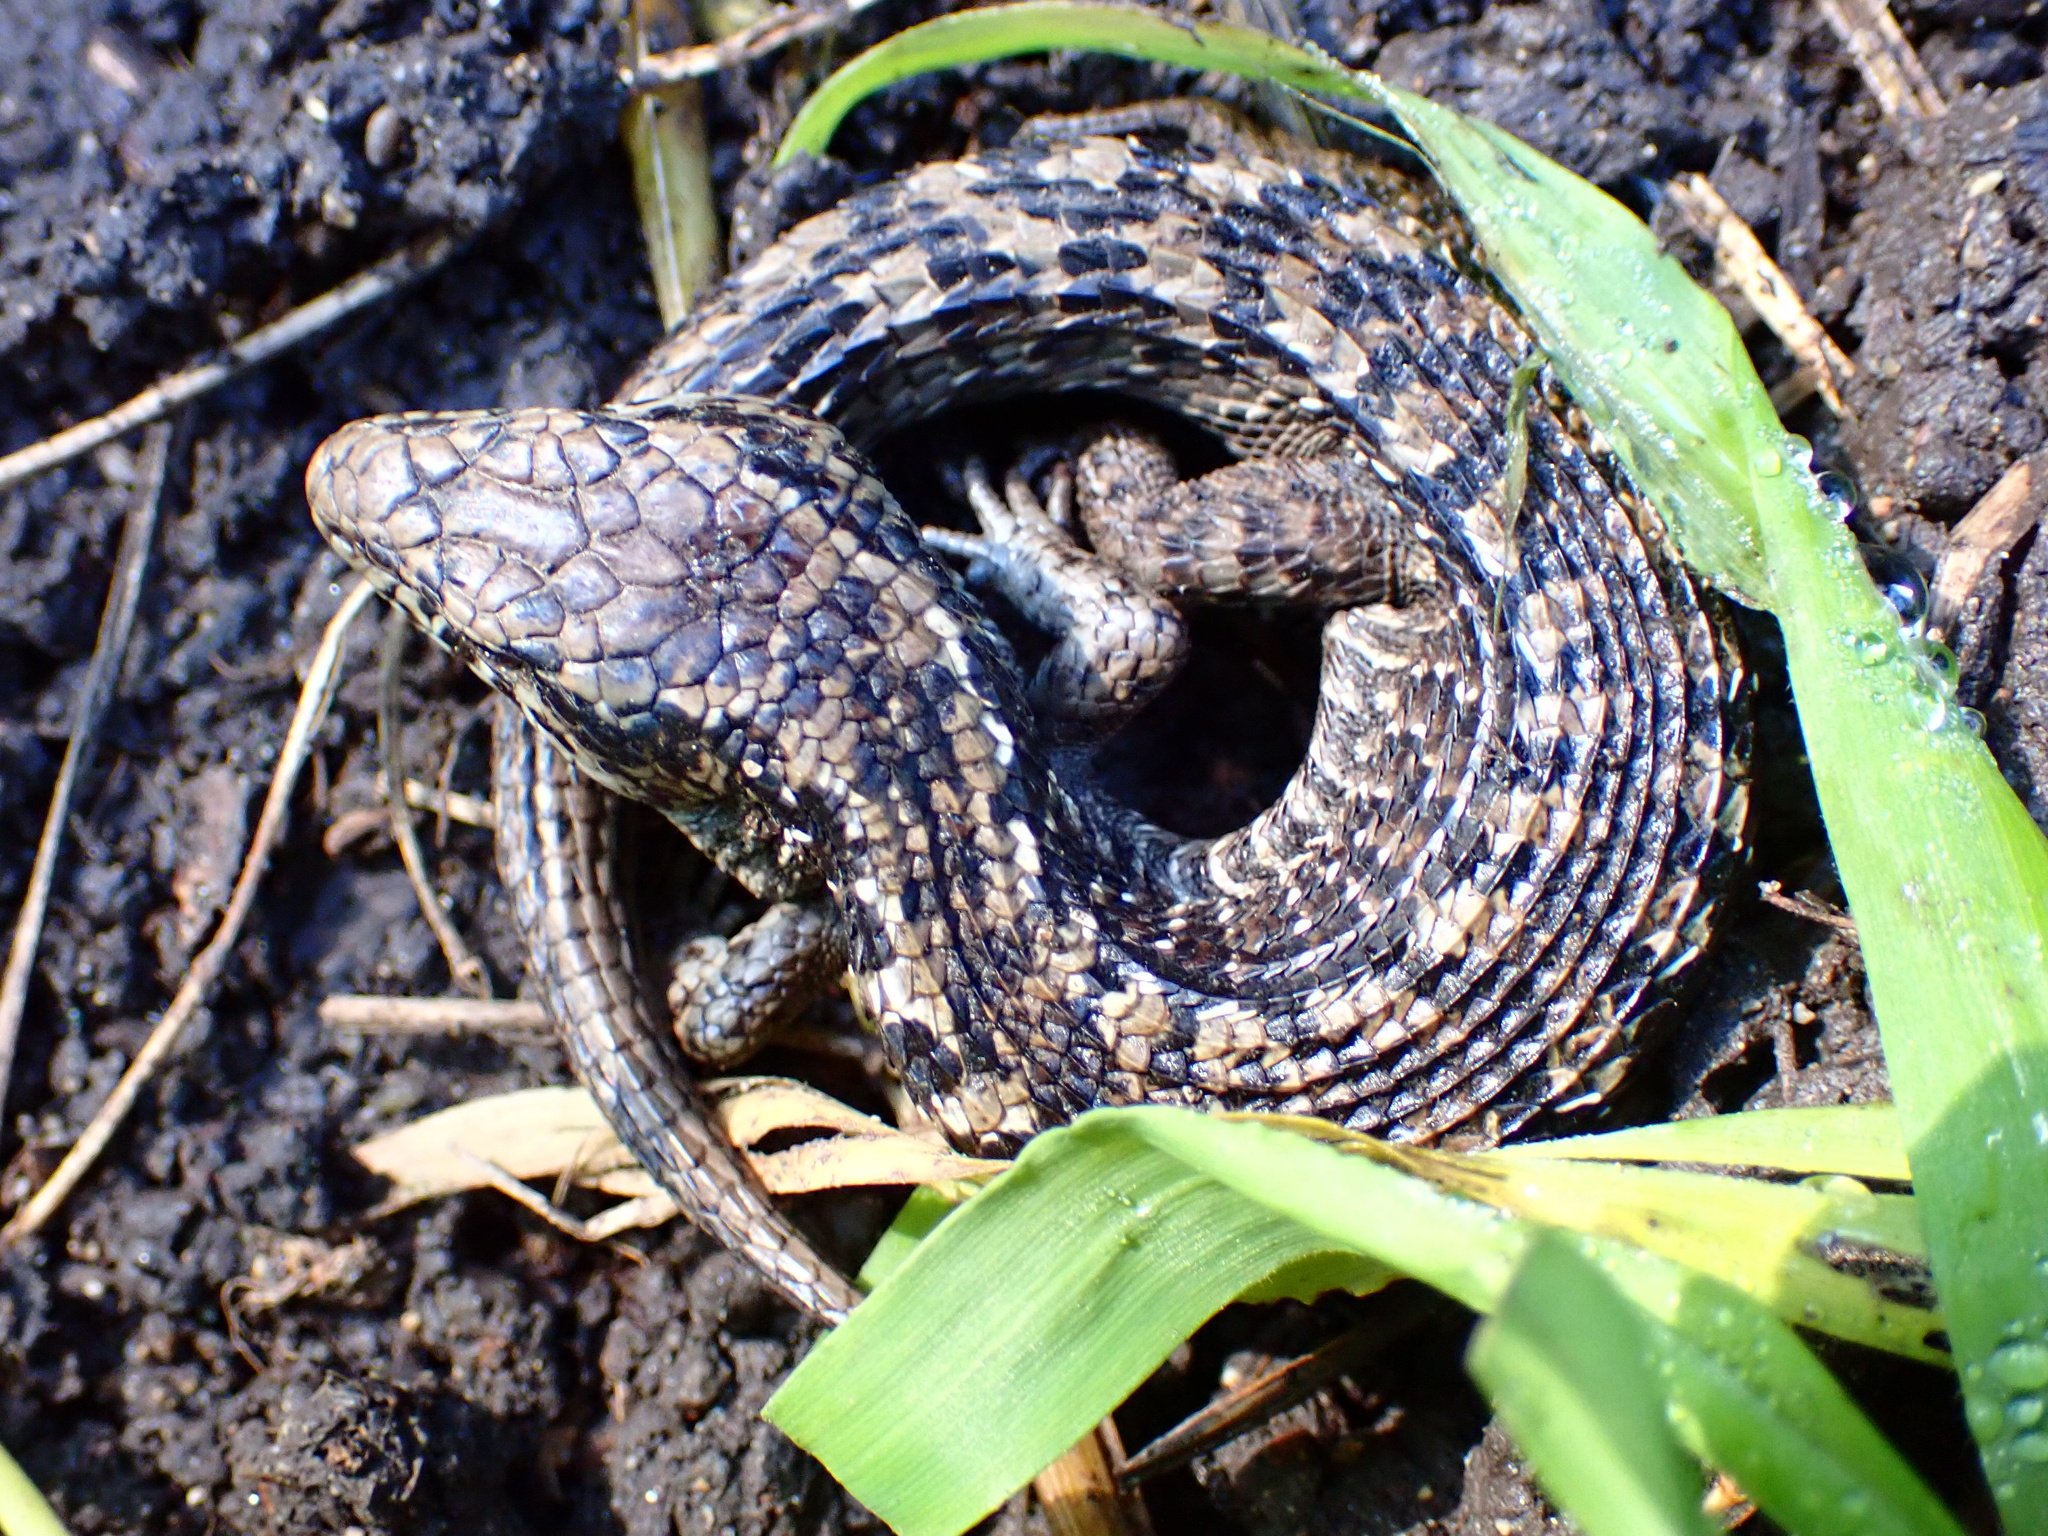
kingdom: Animalia
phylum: Chordata
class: Squamata
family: Anguidae
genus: Elgaria
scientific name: Elgaria coerulea
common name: Northern alligator lizard
